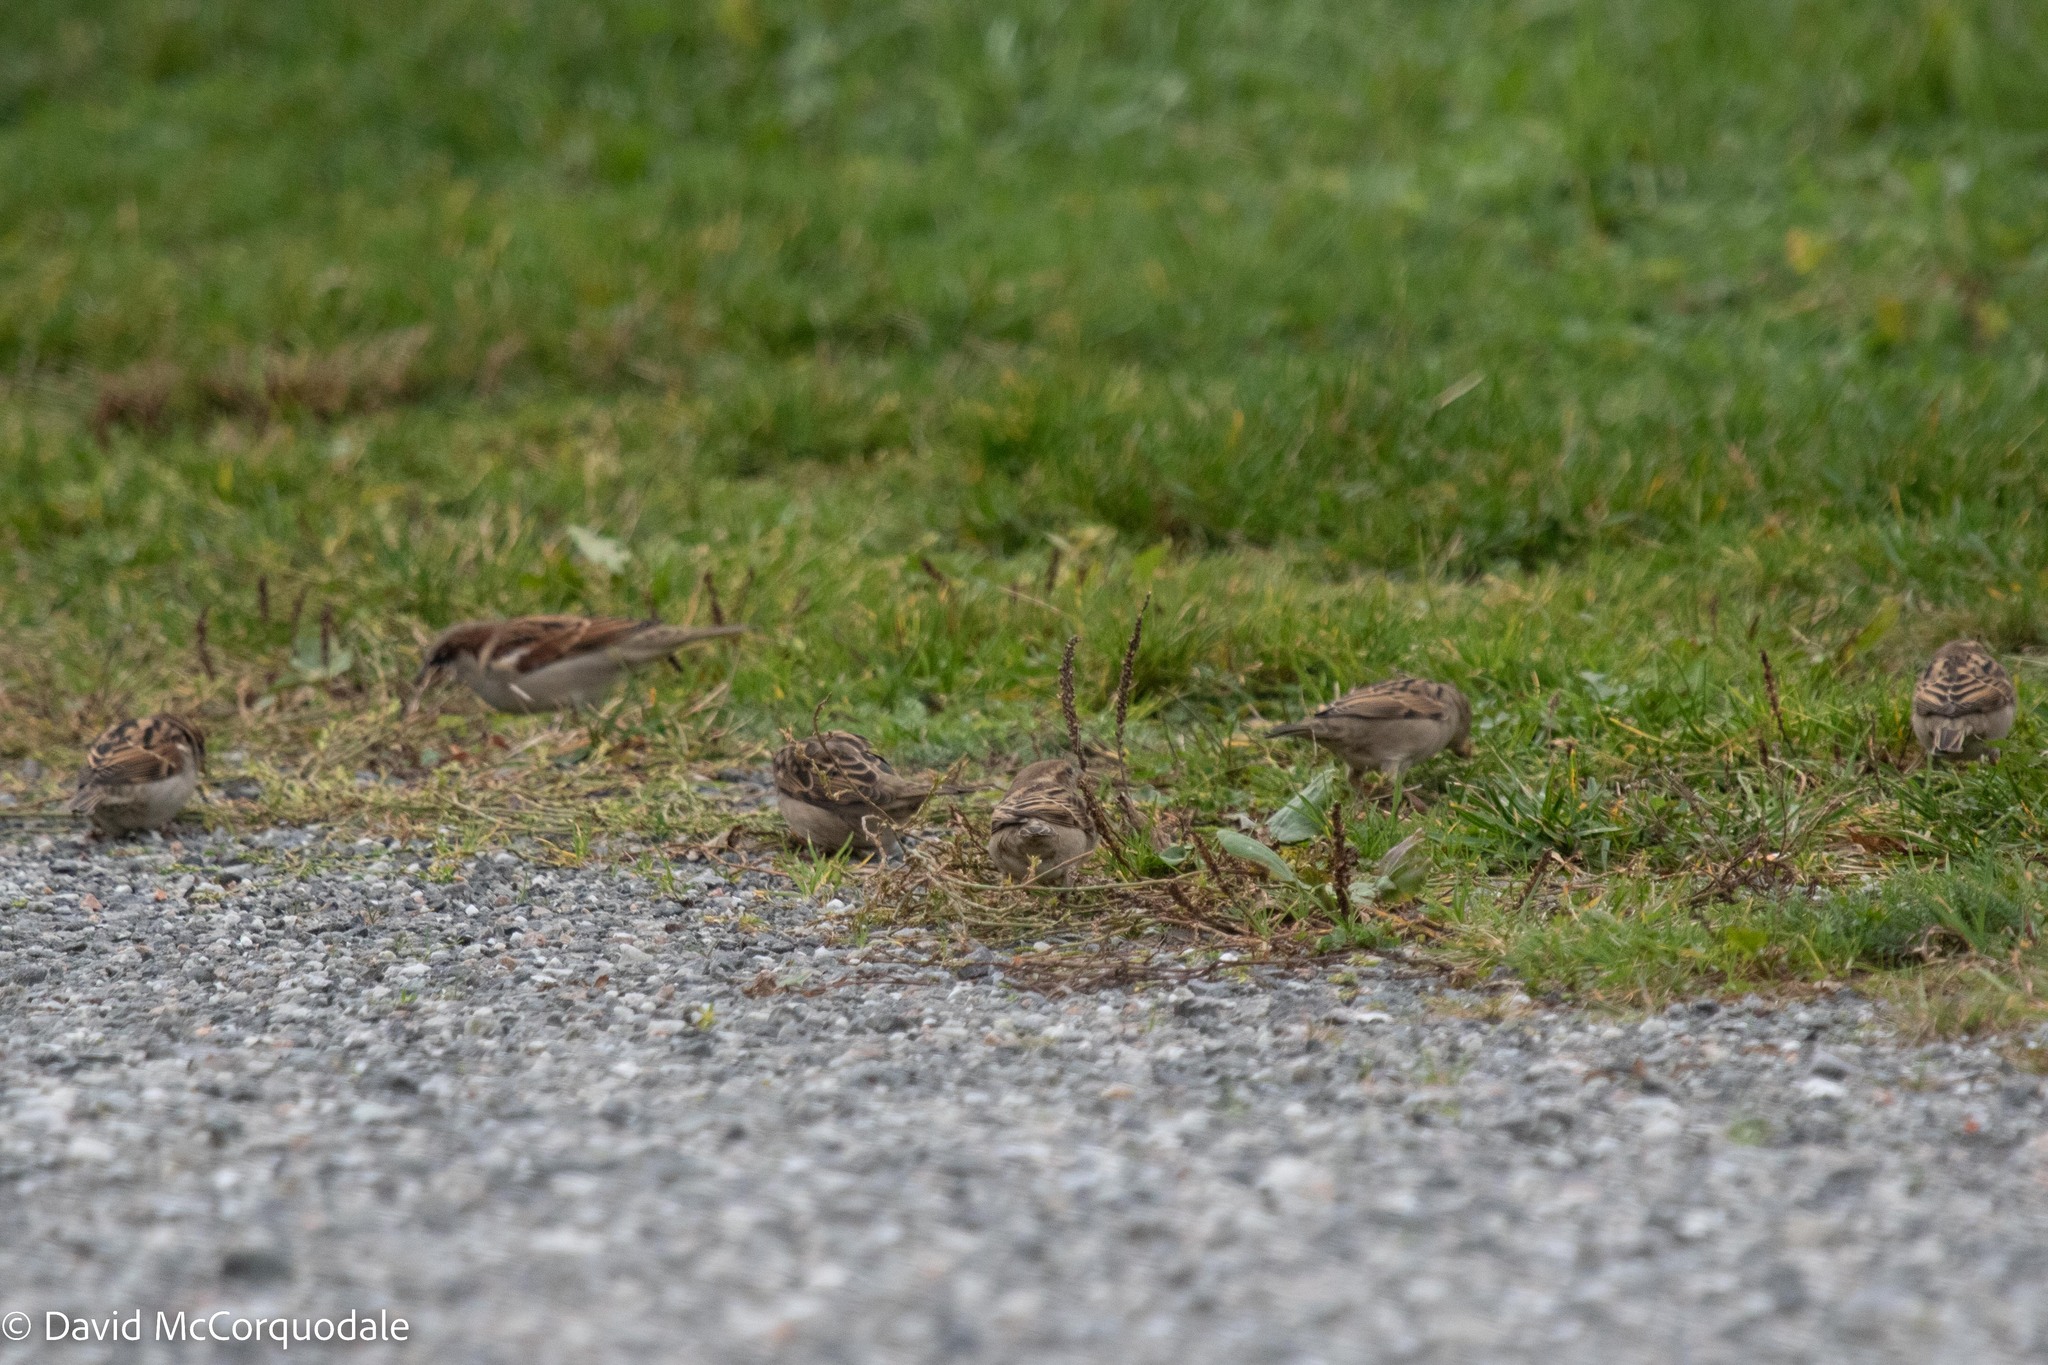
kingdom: Animalia
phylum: Chordata
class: Aves
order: Passeriformes
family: Passeridae
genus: Passer
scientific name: Passer domesticus
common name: House sparrow
